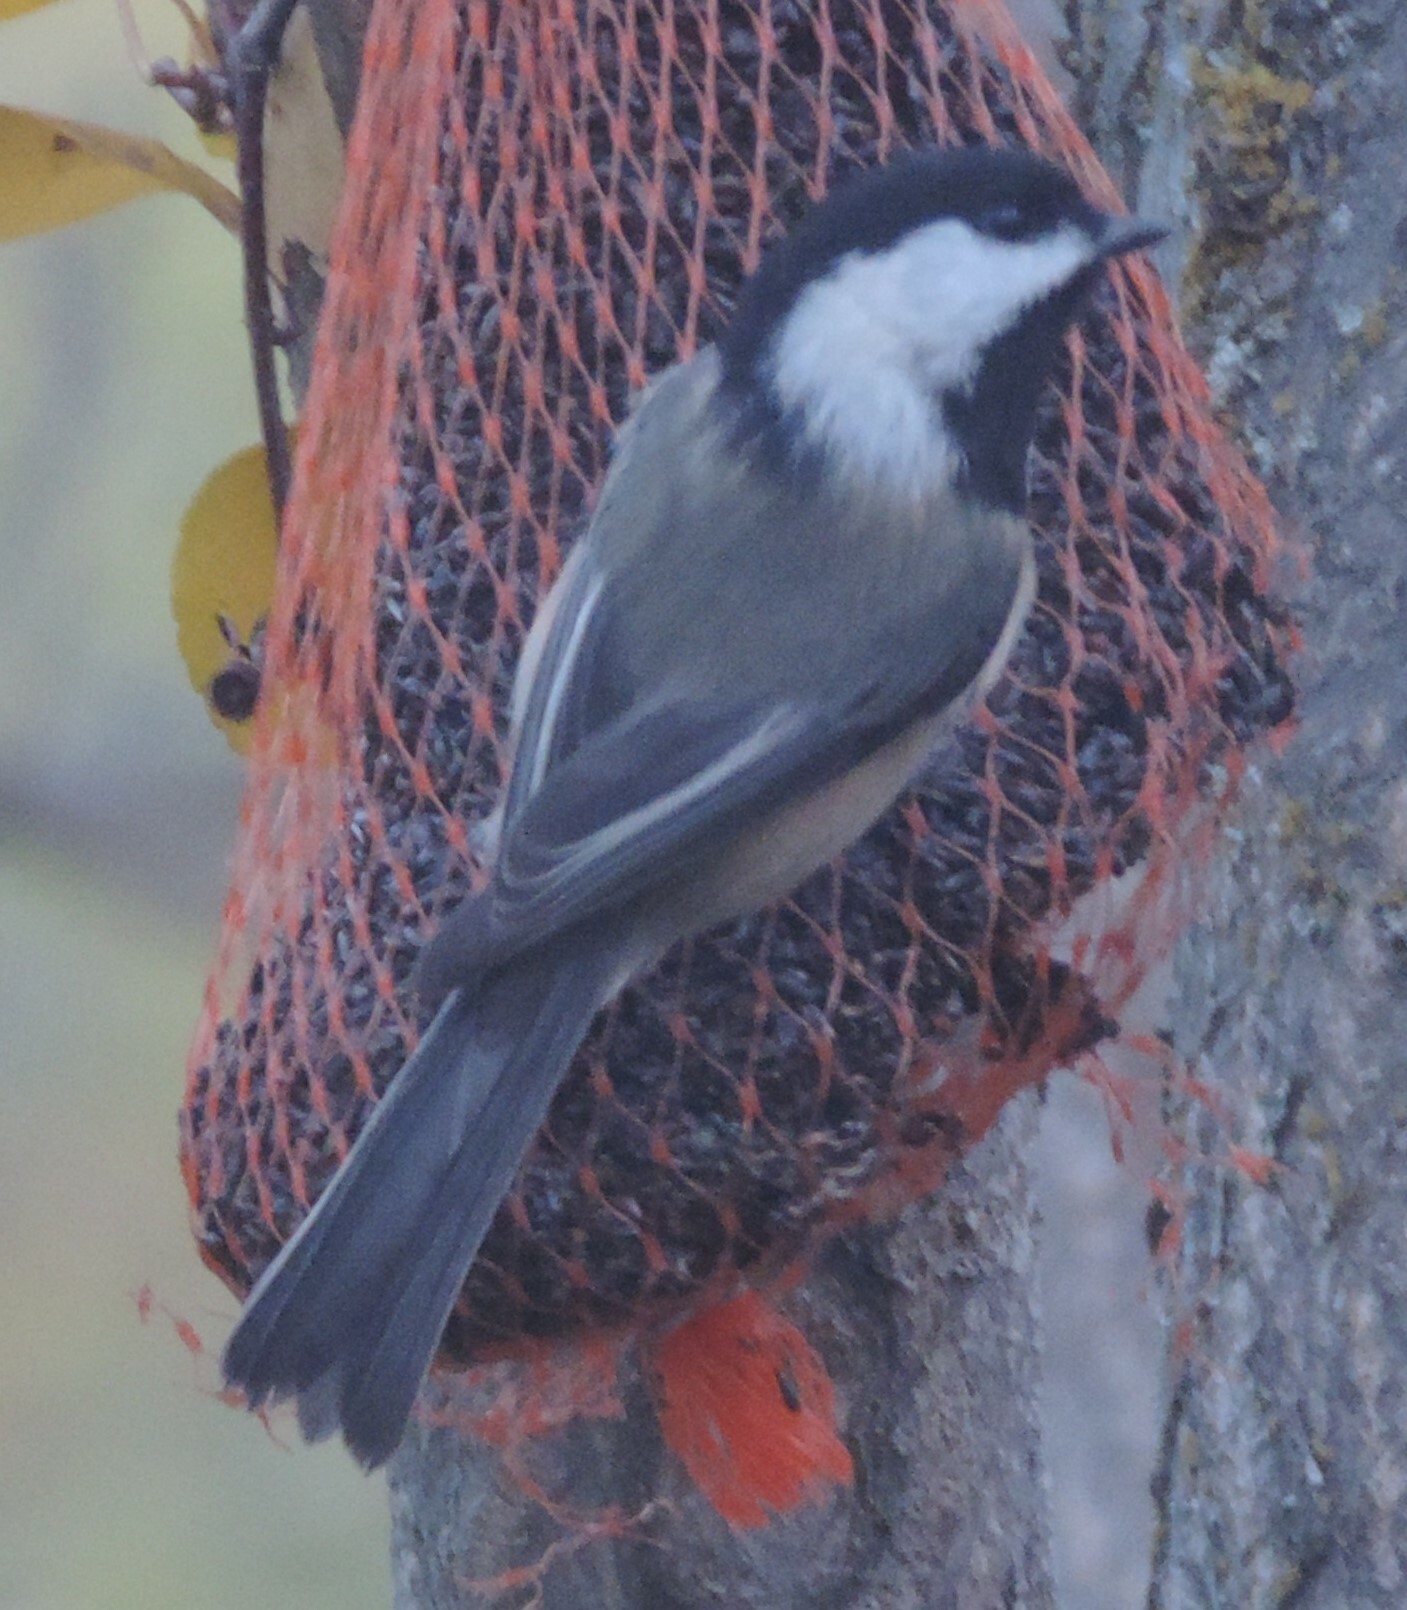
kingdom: Animalia
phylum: Chordata
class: Aves
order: Passeriformes
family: Paridae
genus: Poecile
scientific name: Poecile atricapillus
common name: Black-capped chickadee
